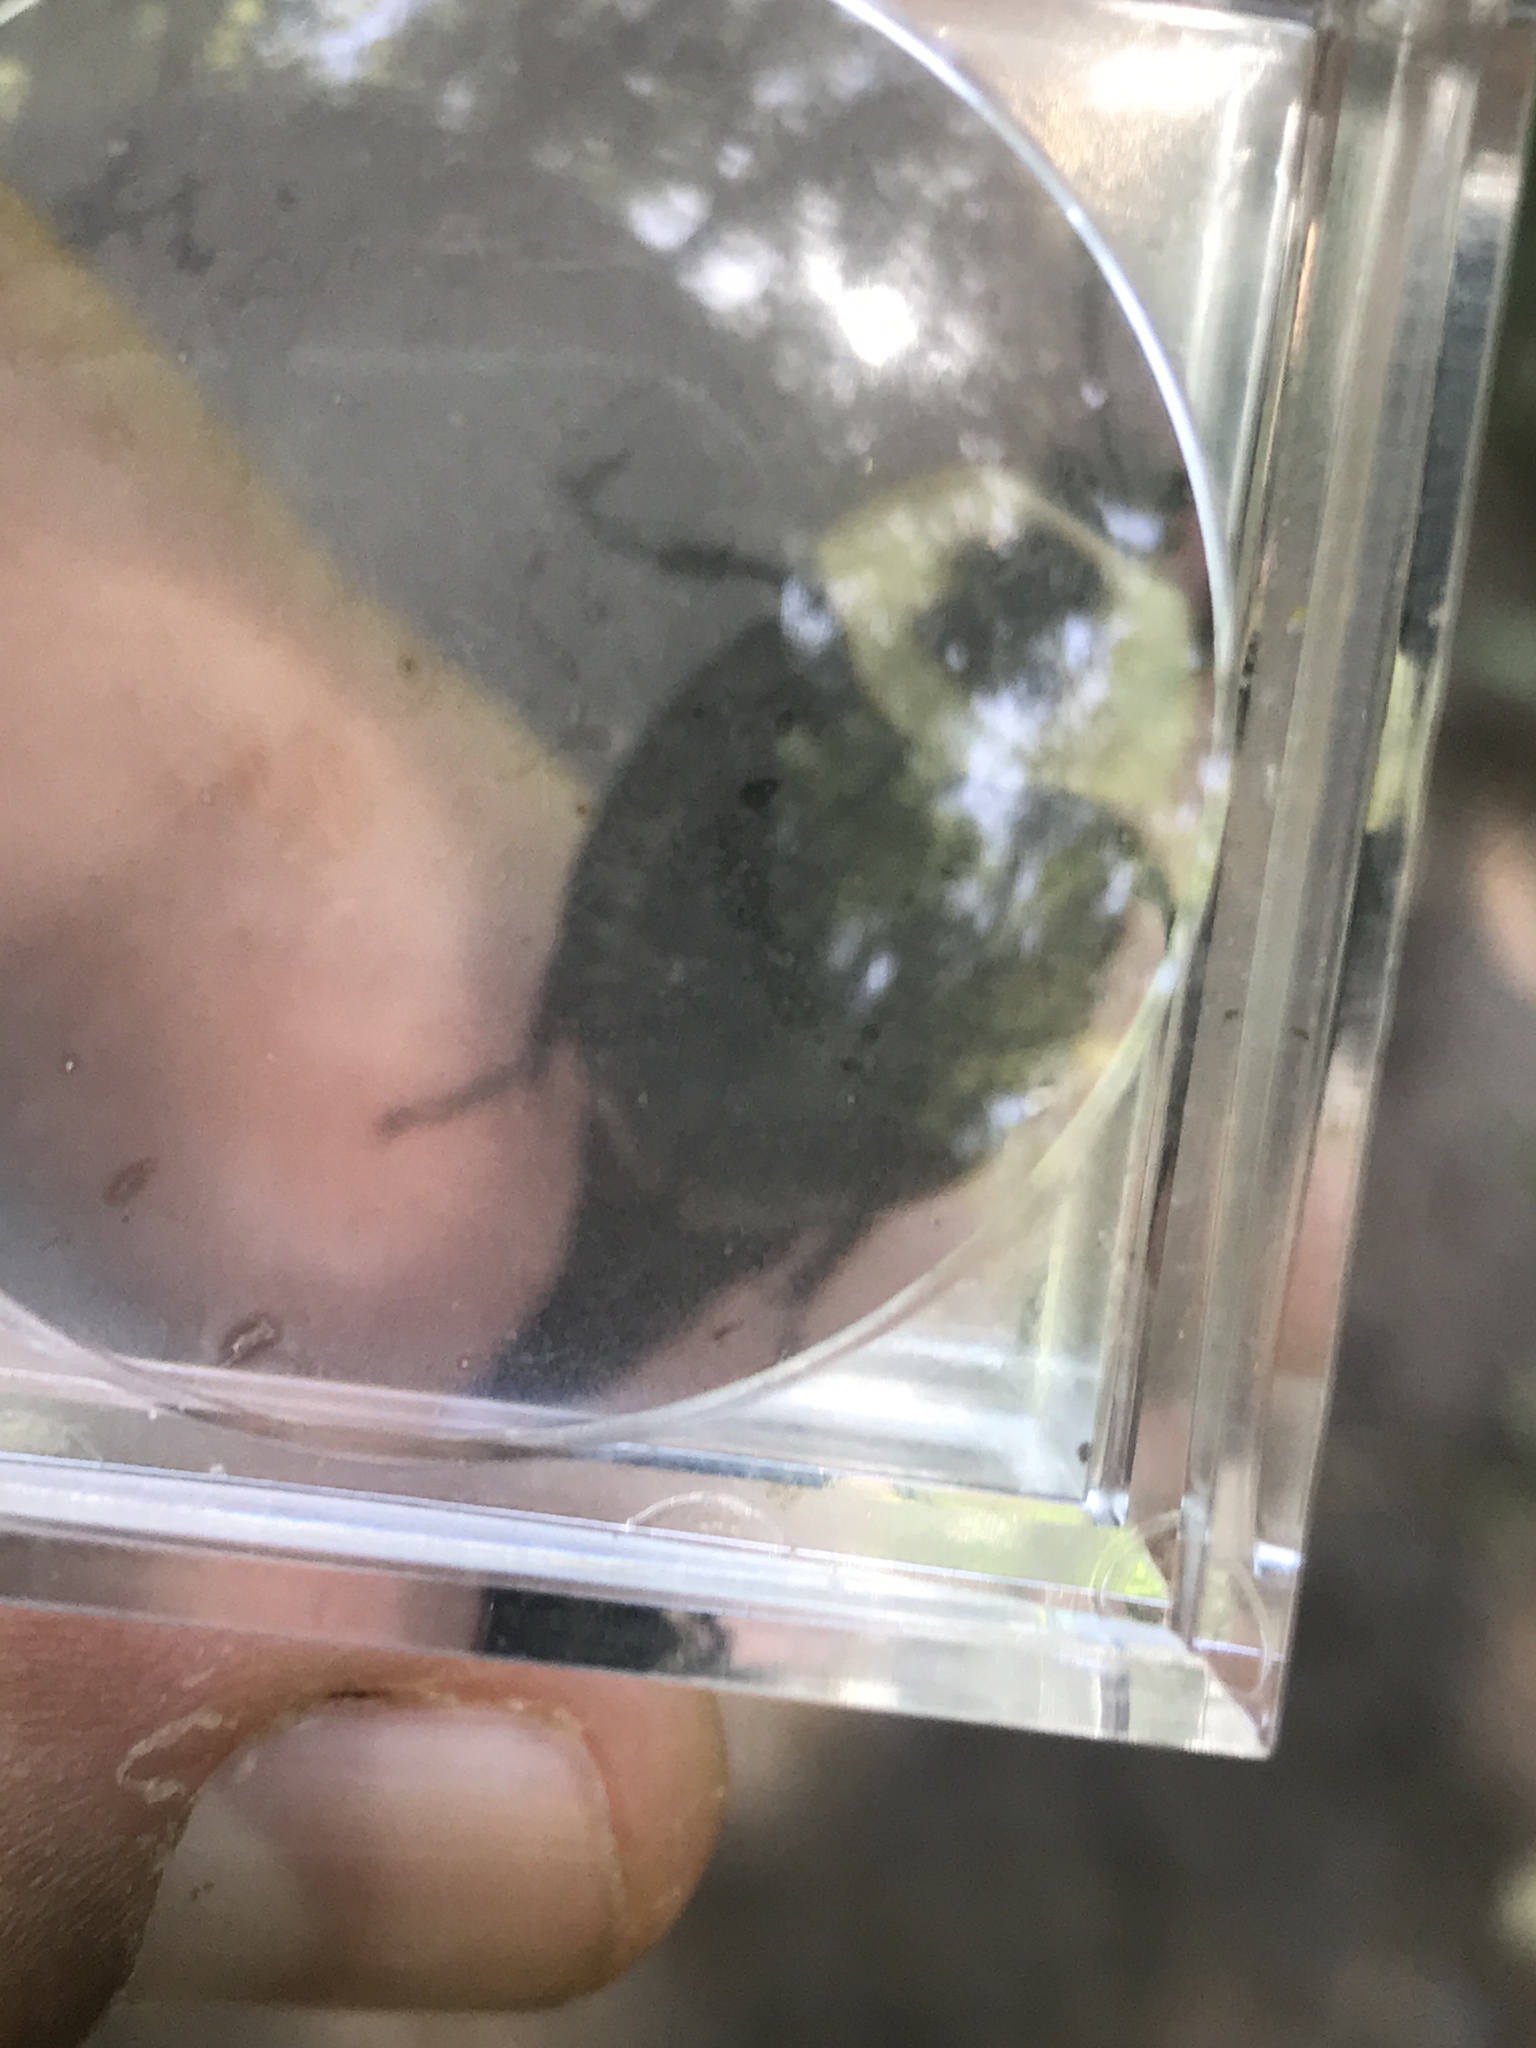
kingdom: Animalia
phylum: Arthropoda
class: Insecta
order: Coleoptera
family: Staphylinidae
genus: Necrophila
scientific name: Necrophila americana
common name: American carrion beetle
